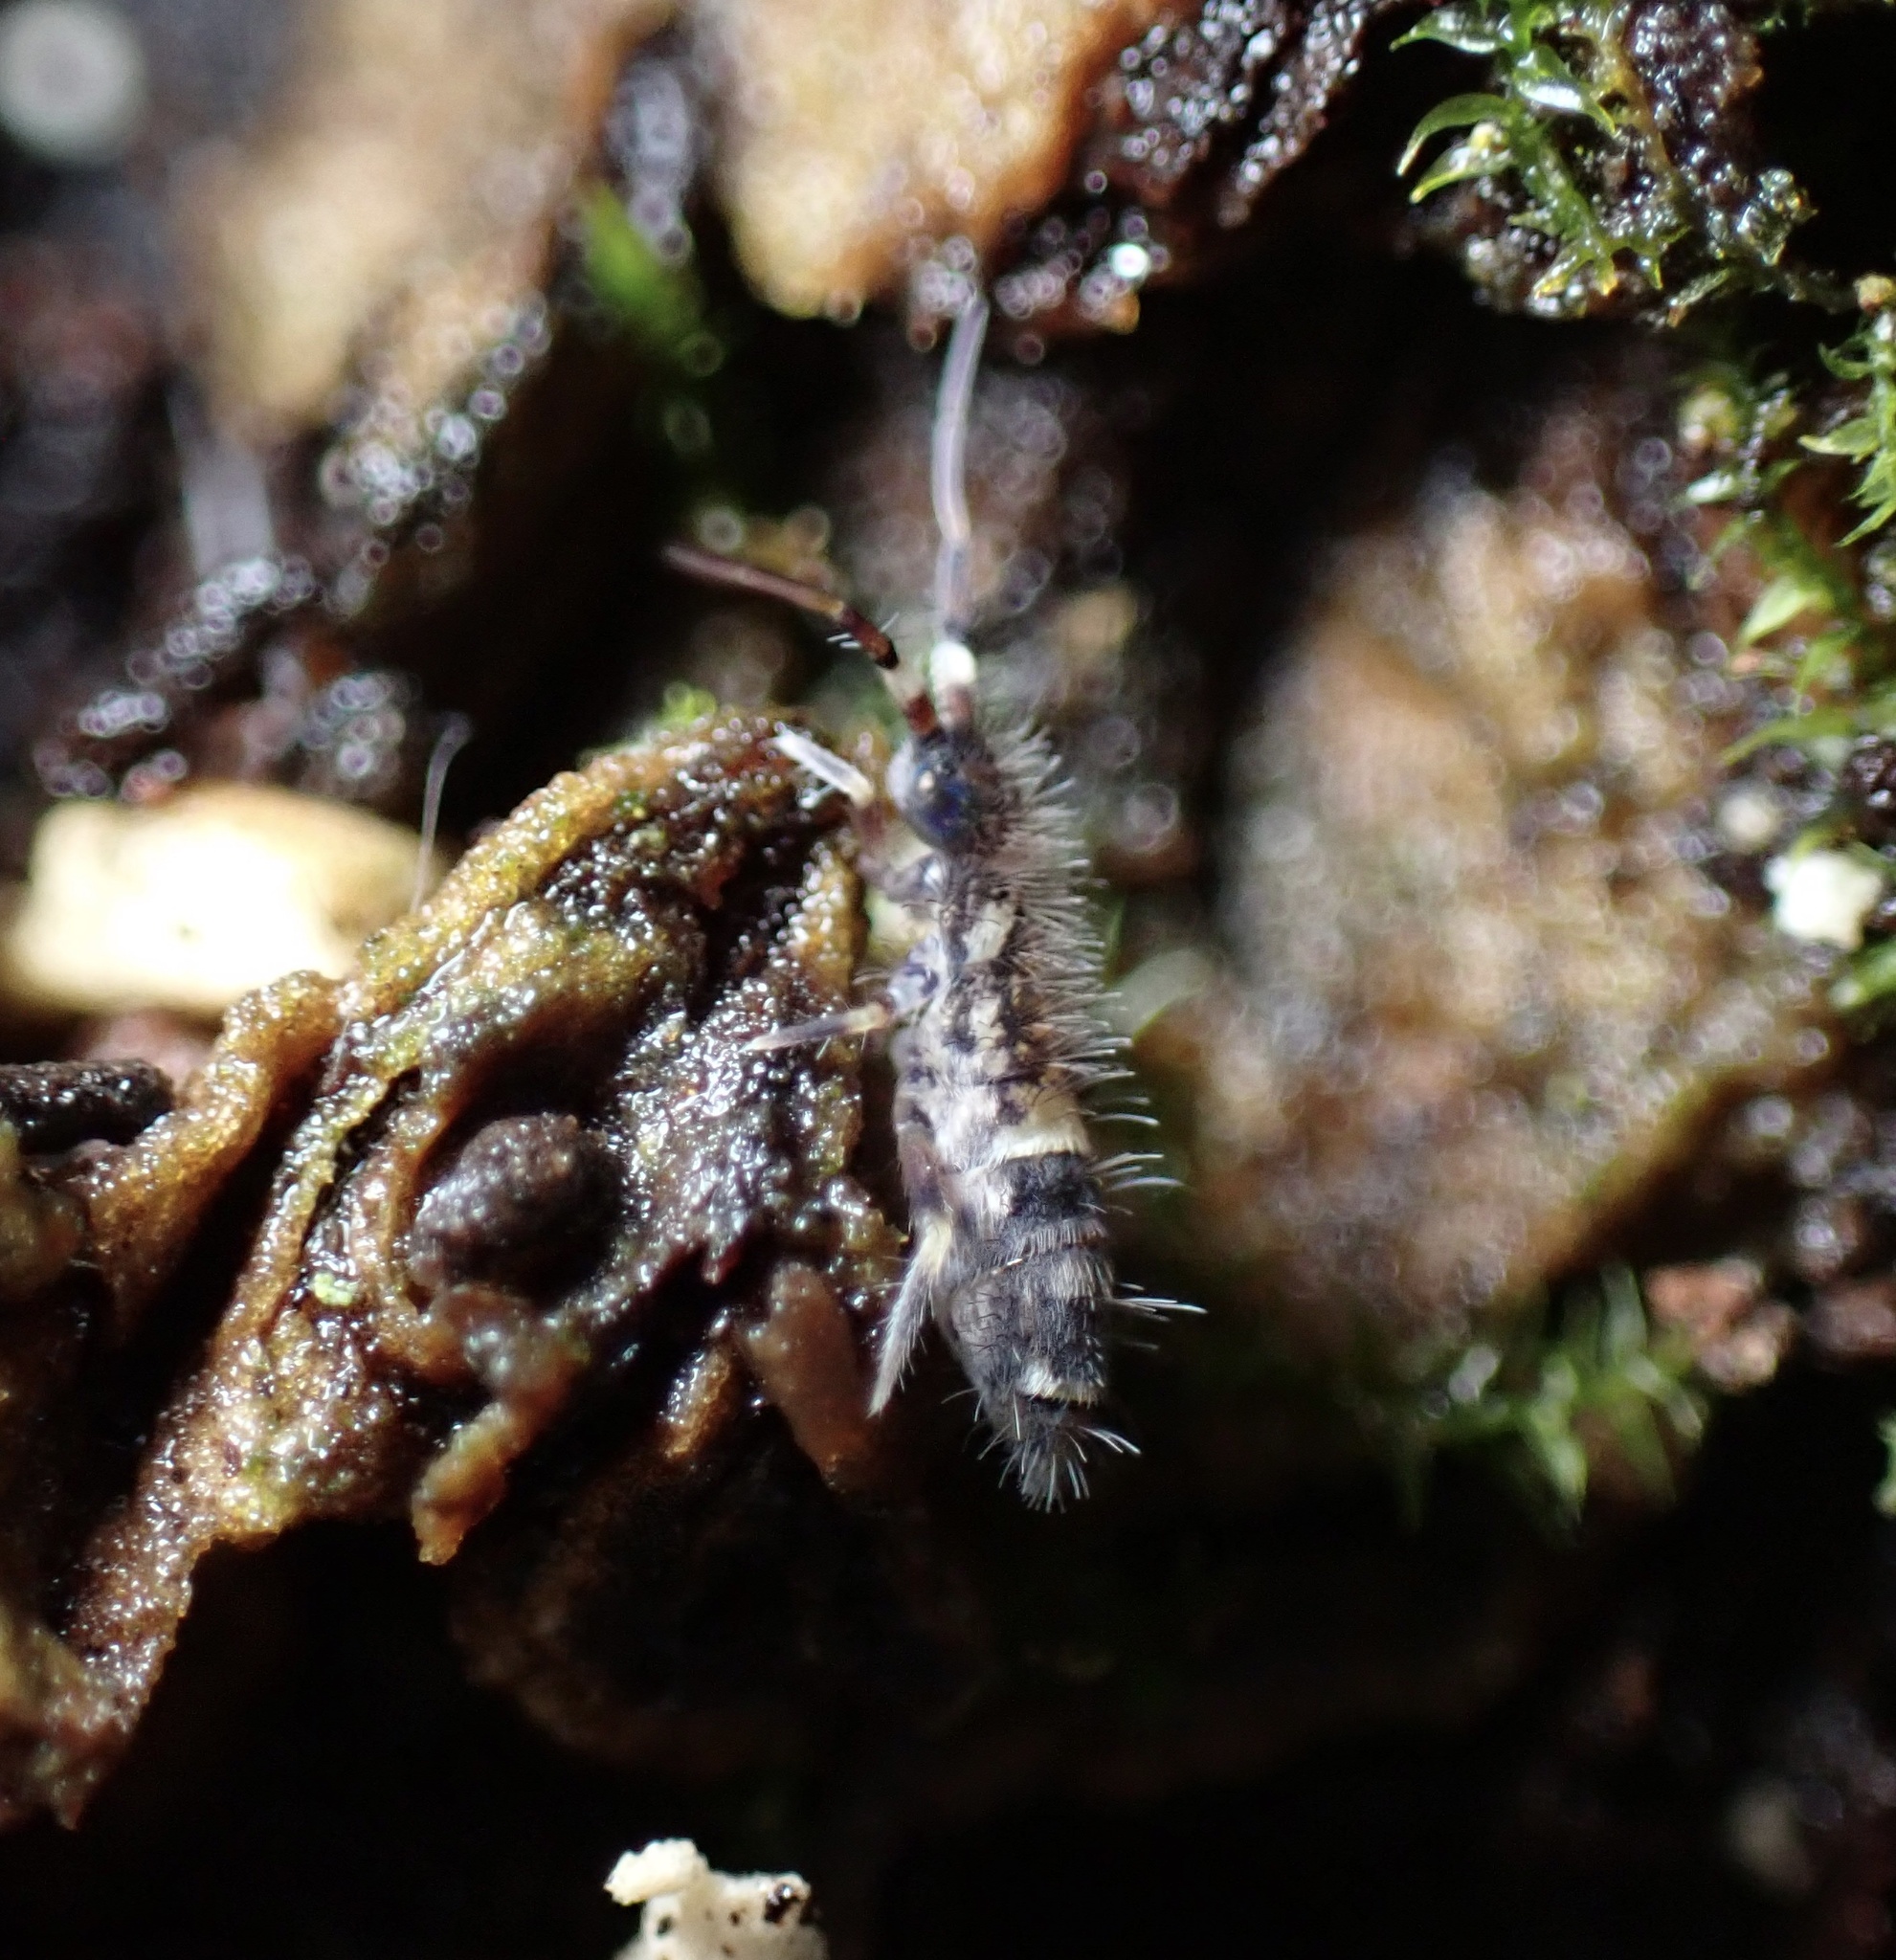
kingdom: Animalia
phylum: Arthropoda
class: Collembola
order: Entomobryomorpha
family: Orchesellidae
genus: Orchesella
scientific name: Orchesella cincta
